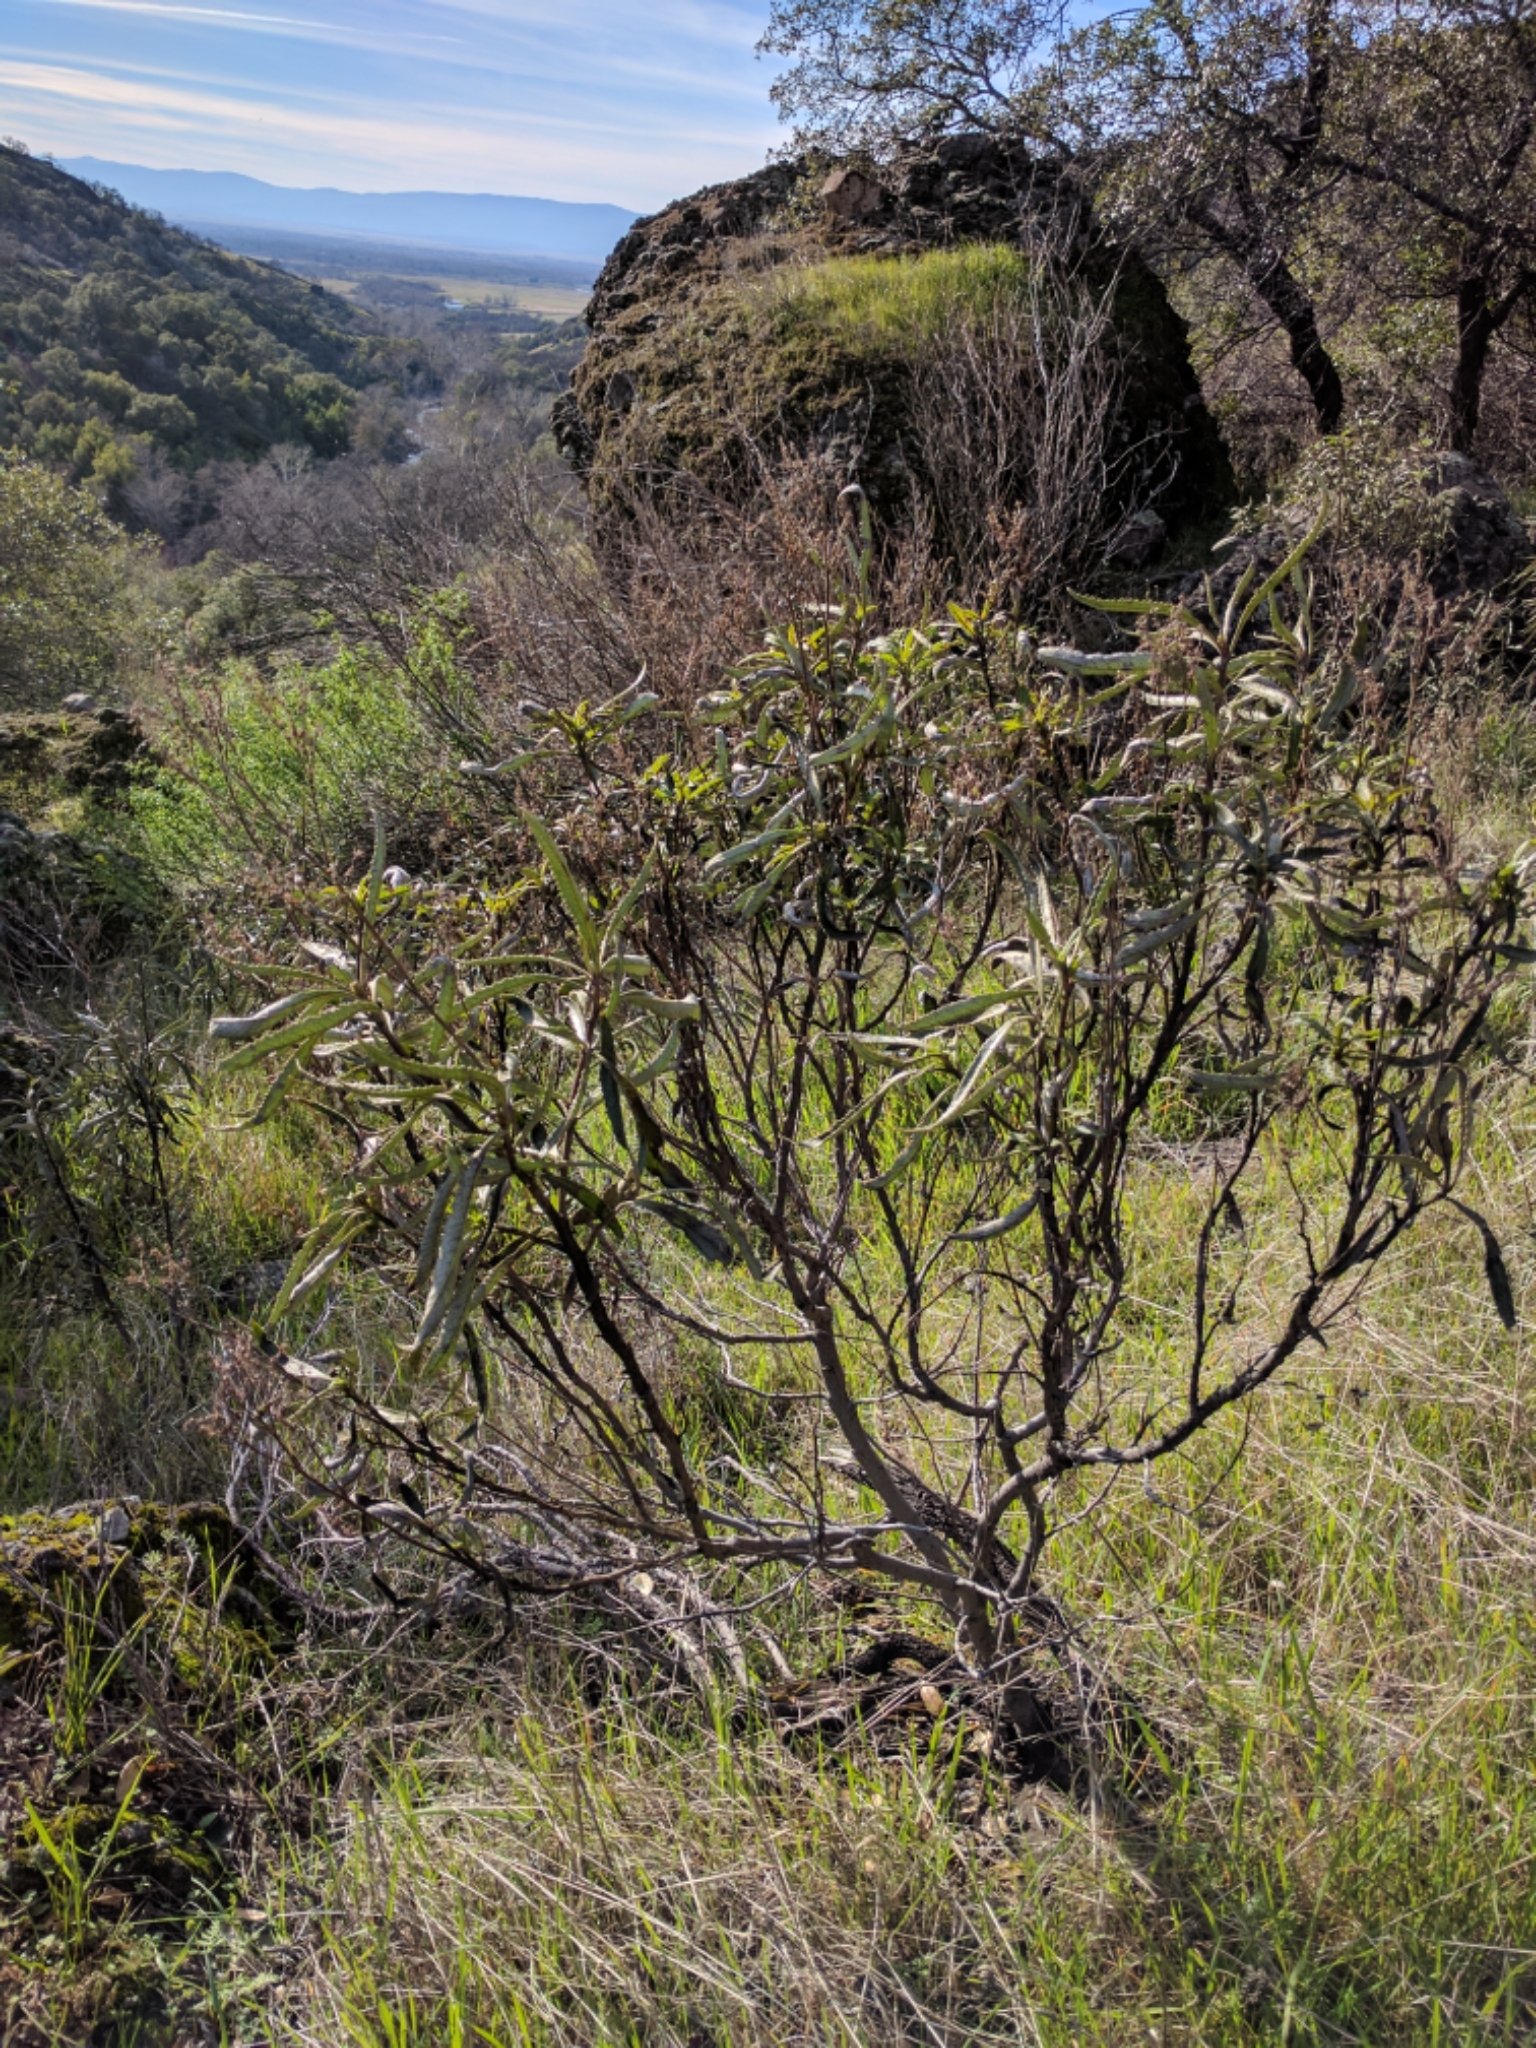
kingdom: Plantae
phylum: Tracheophyta
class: Magnoliopsida
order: Boraginales
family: Namaceae
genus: Eriodictyon
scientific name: Eriodictyon californicum
